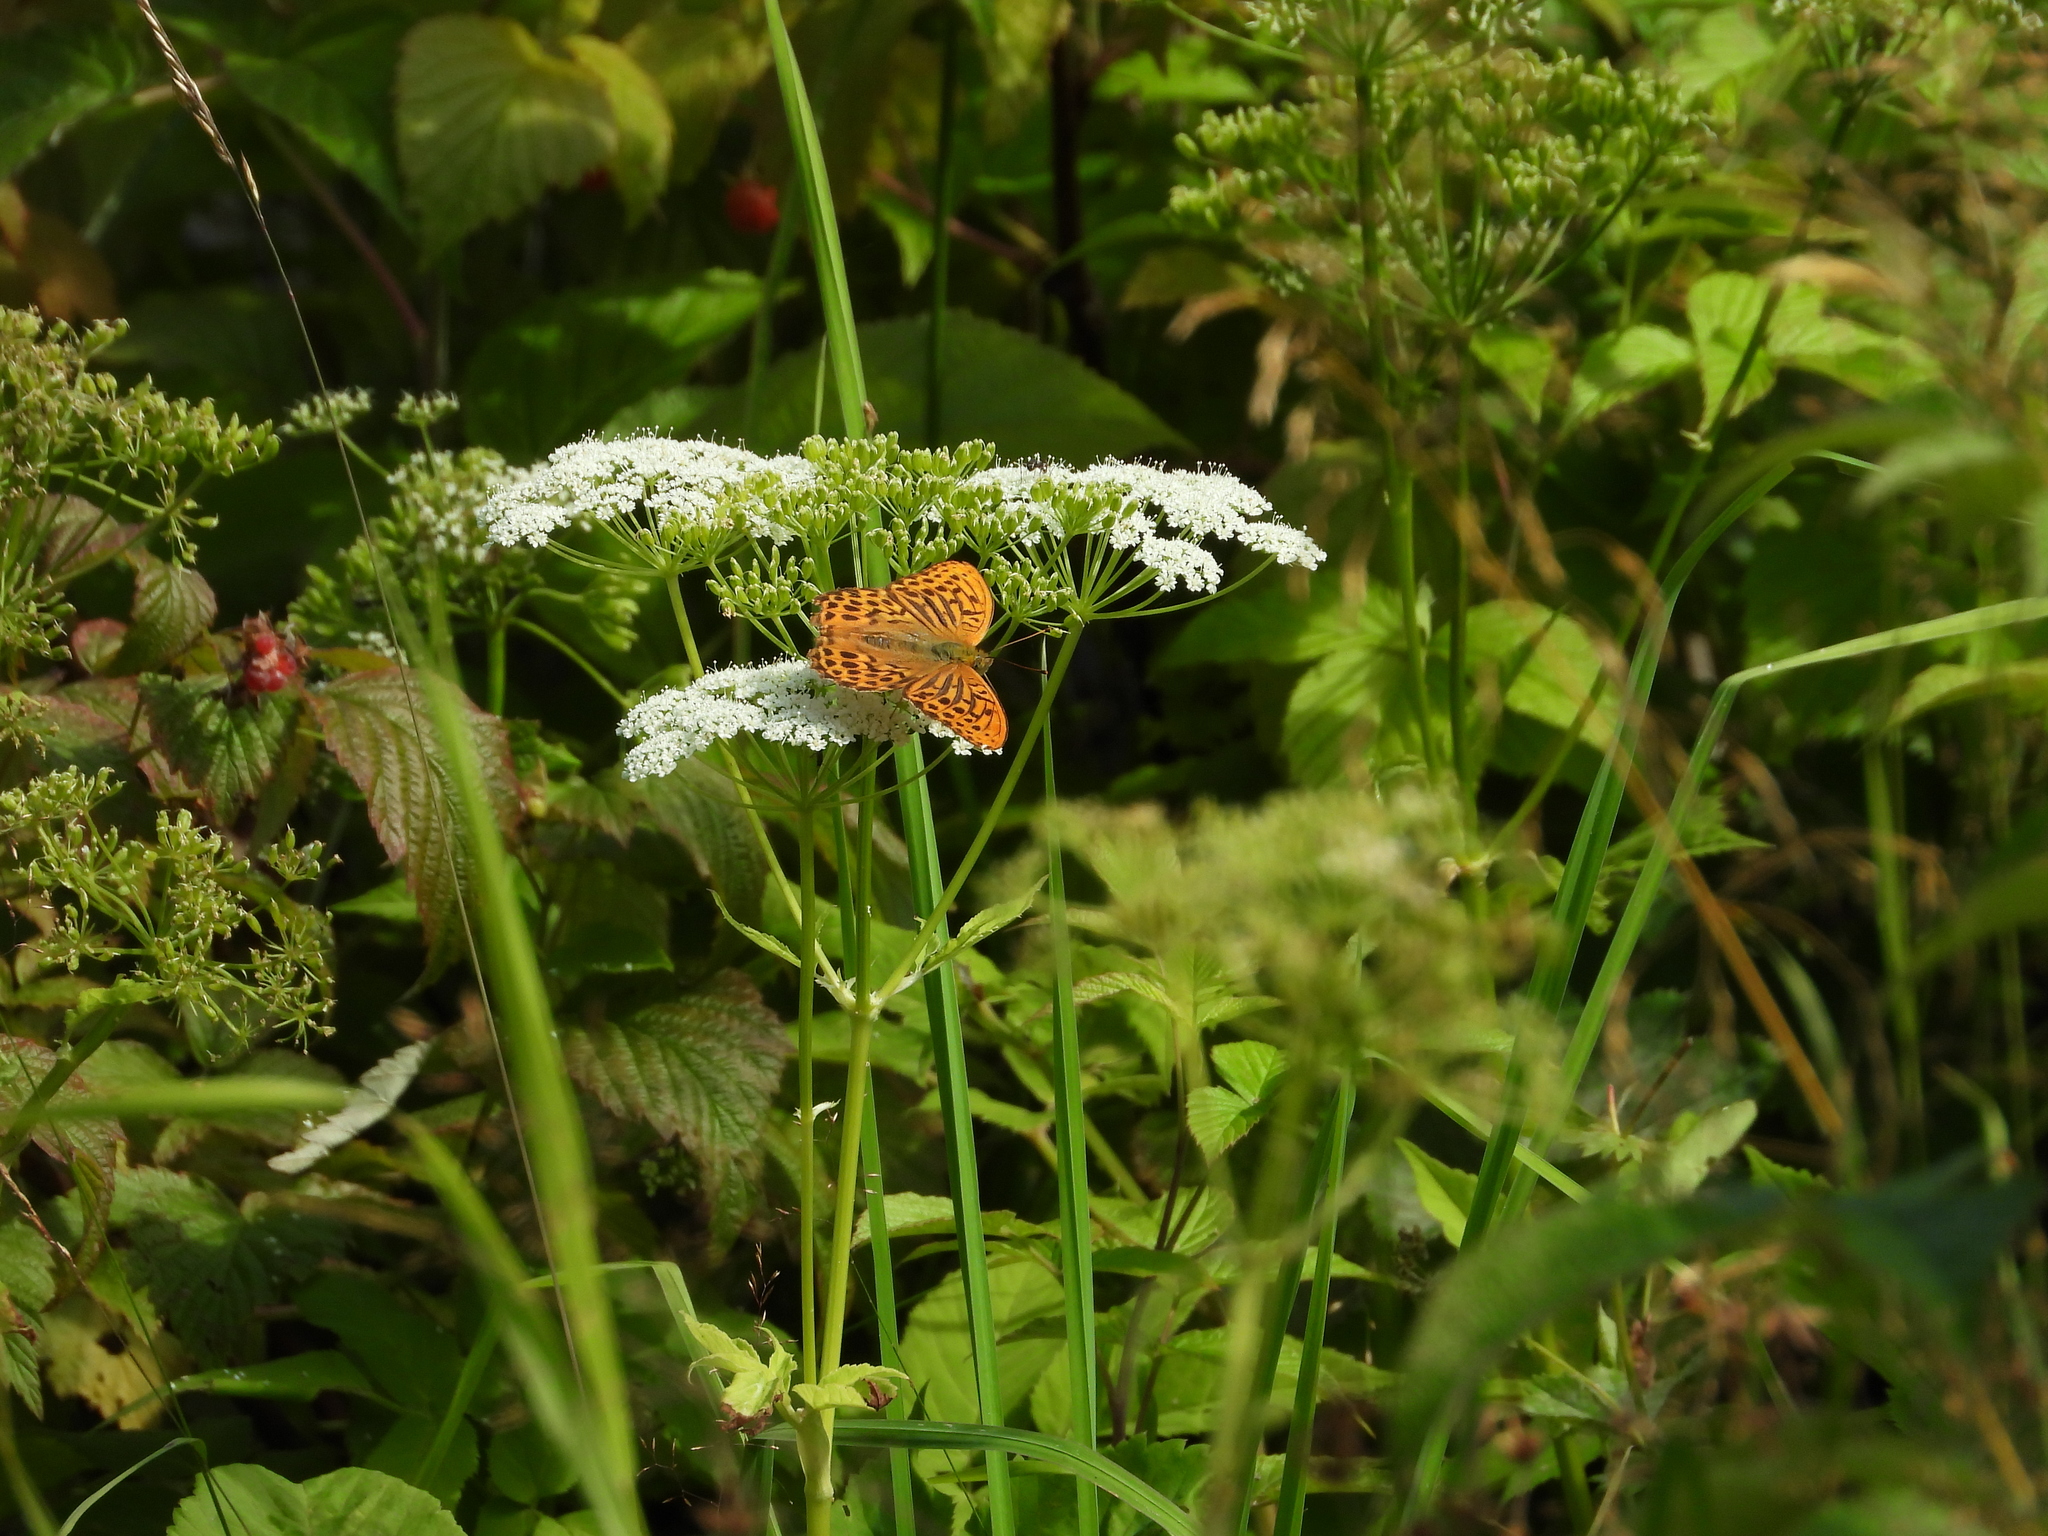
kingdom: Animalia
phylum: Arthropoda
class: Insecta
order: Lepidoptera
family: Nymphalidae
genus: Argynnis
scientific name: Argynnis paphia
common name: Silver-washed fritillary
